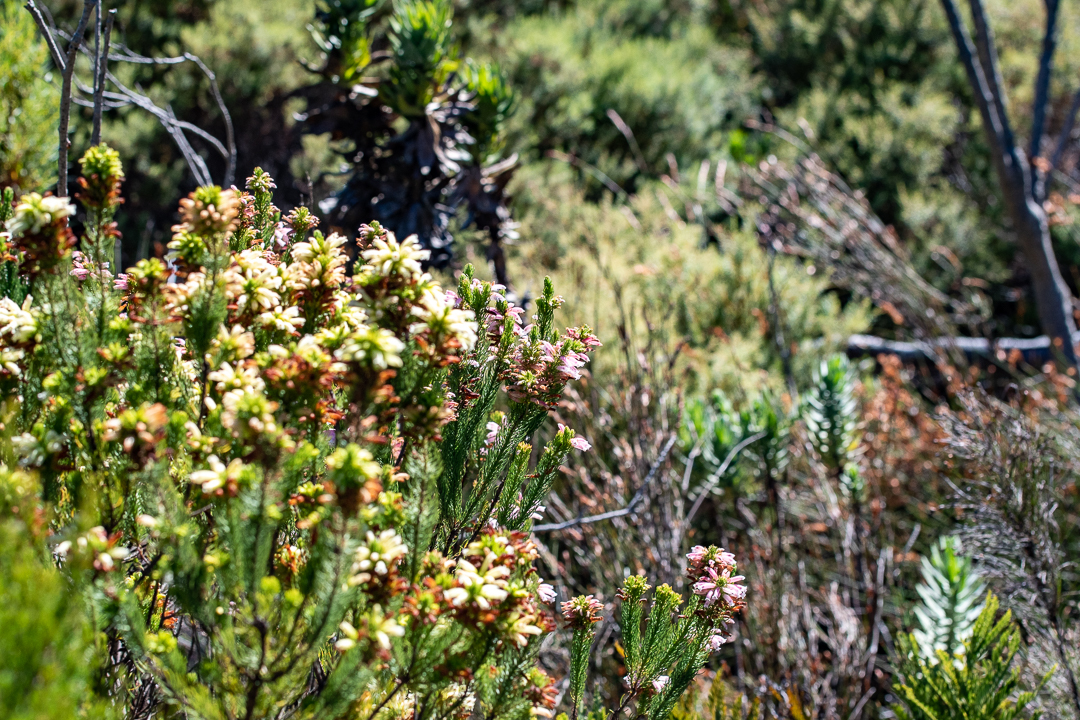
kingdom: Plantae
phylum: Tracheophyta
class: Magnoliopsida
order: Ericales
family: Ericaceae
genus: Erica
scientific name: Erica viscaria
